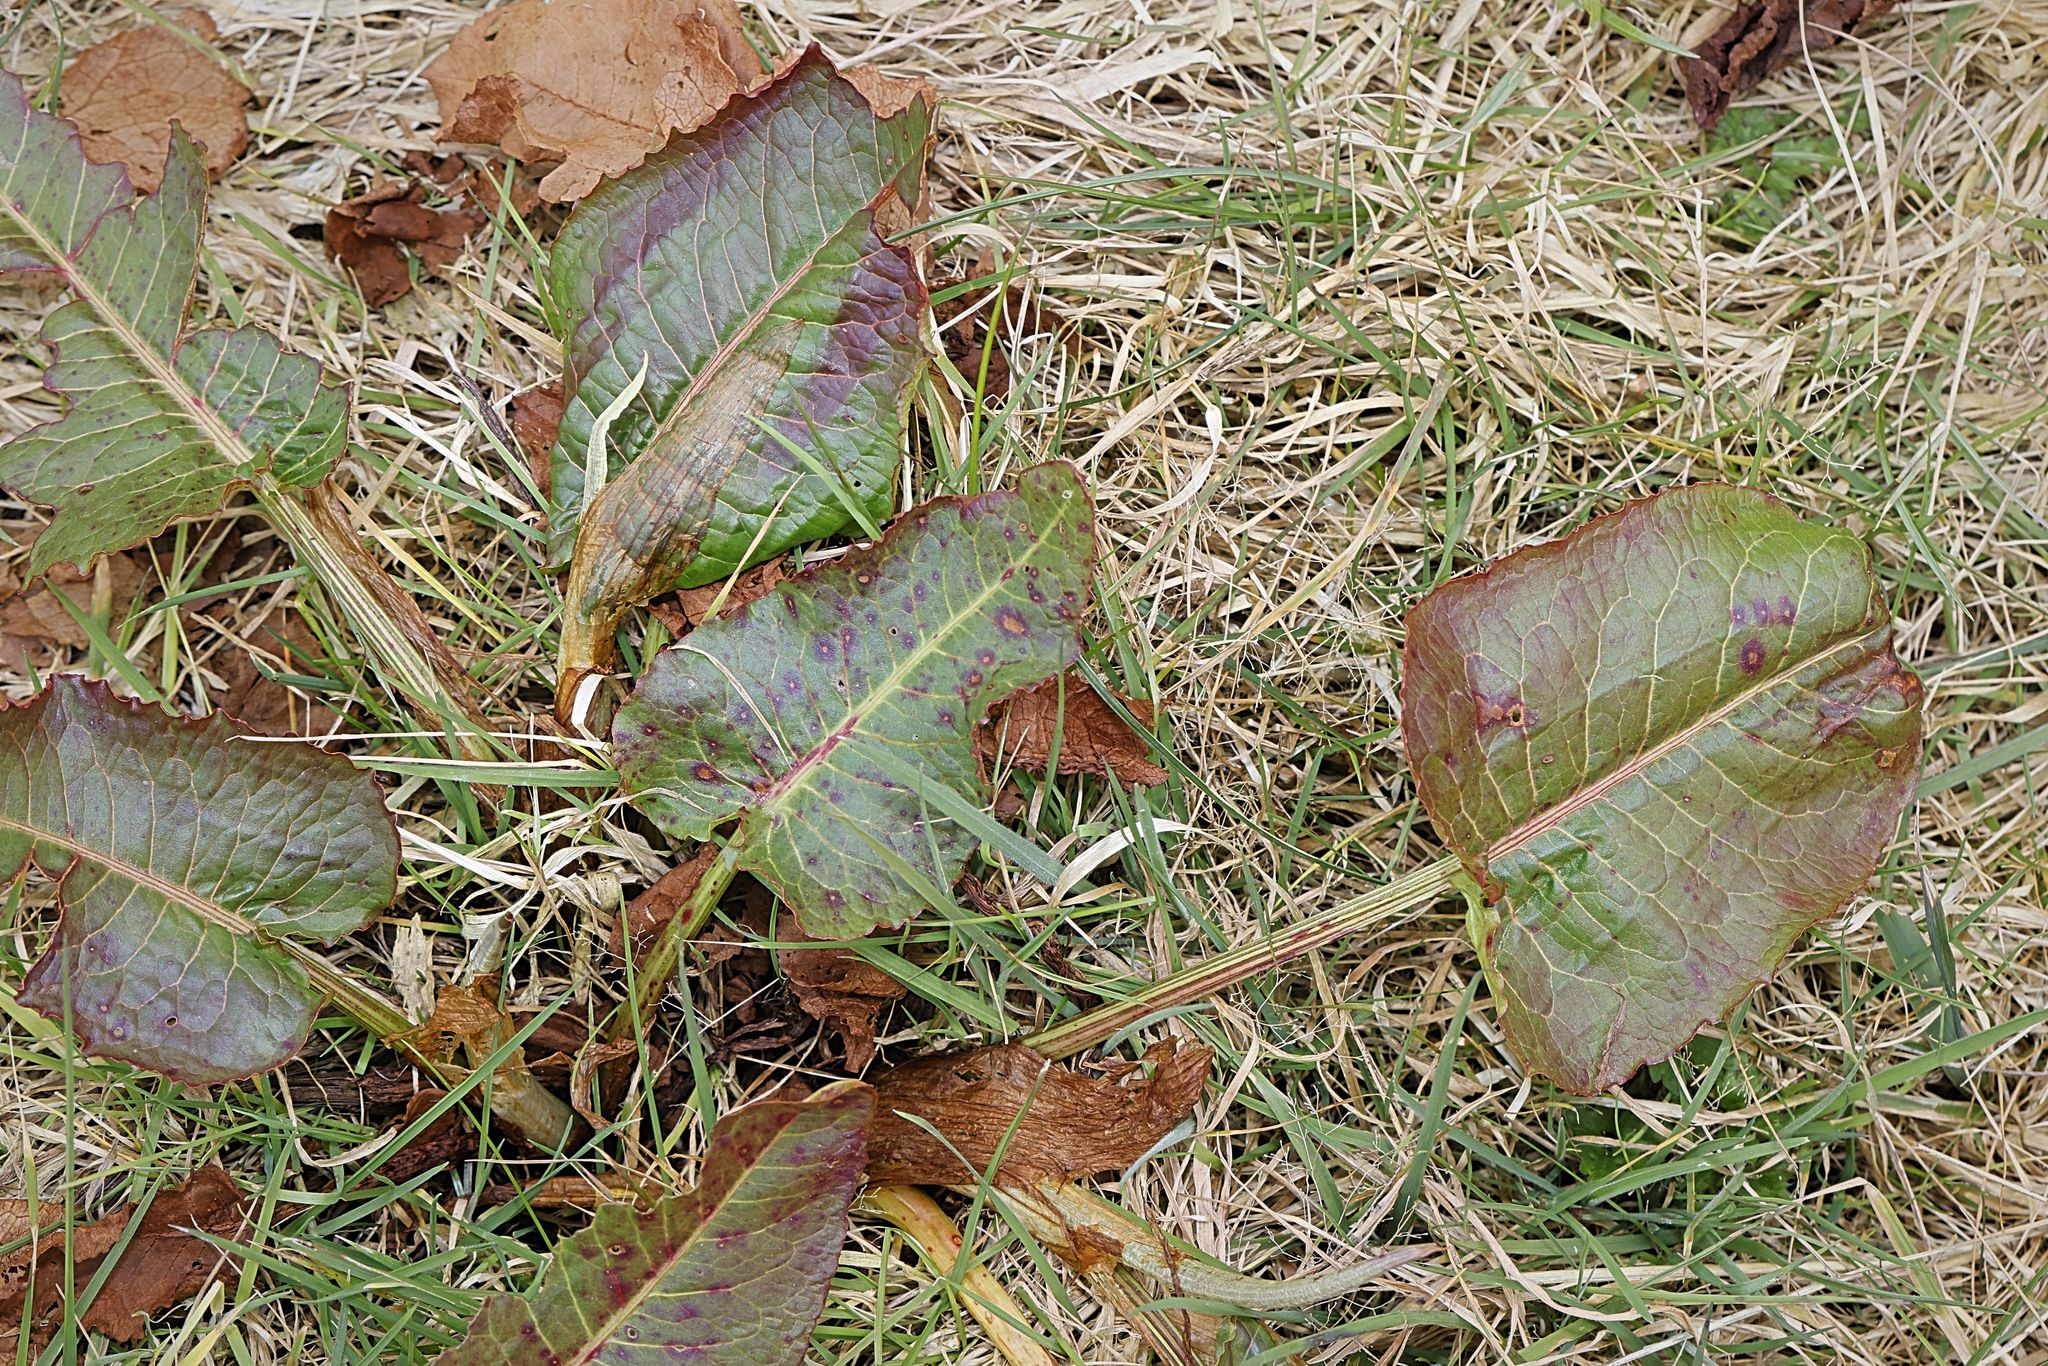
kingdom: Plantae
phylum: Tracheophyta
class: Magnoliopsida
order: Caryophyllales
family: Polygonaceae
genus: Rumex
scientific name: Rumex obtusifolius
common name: Bitter dock
